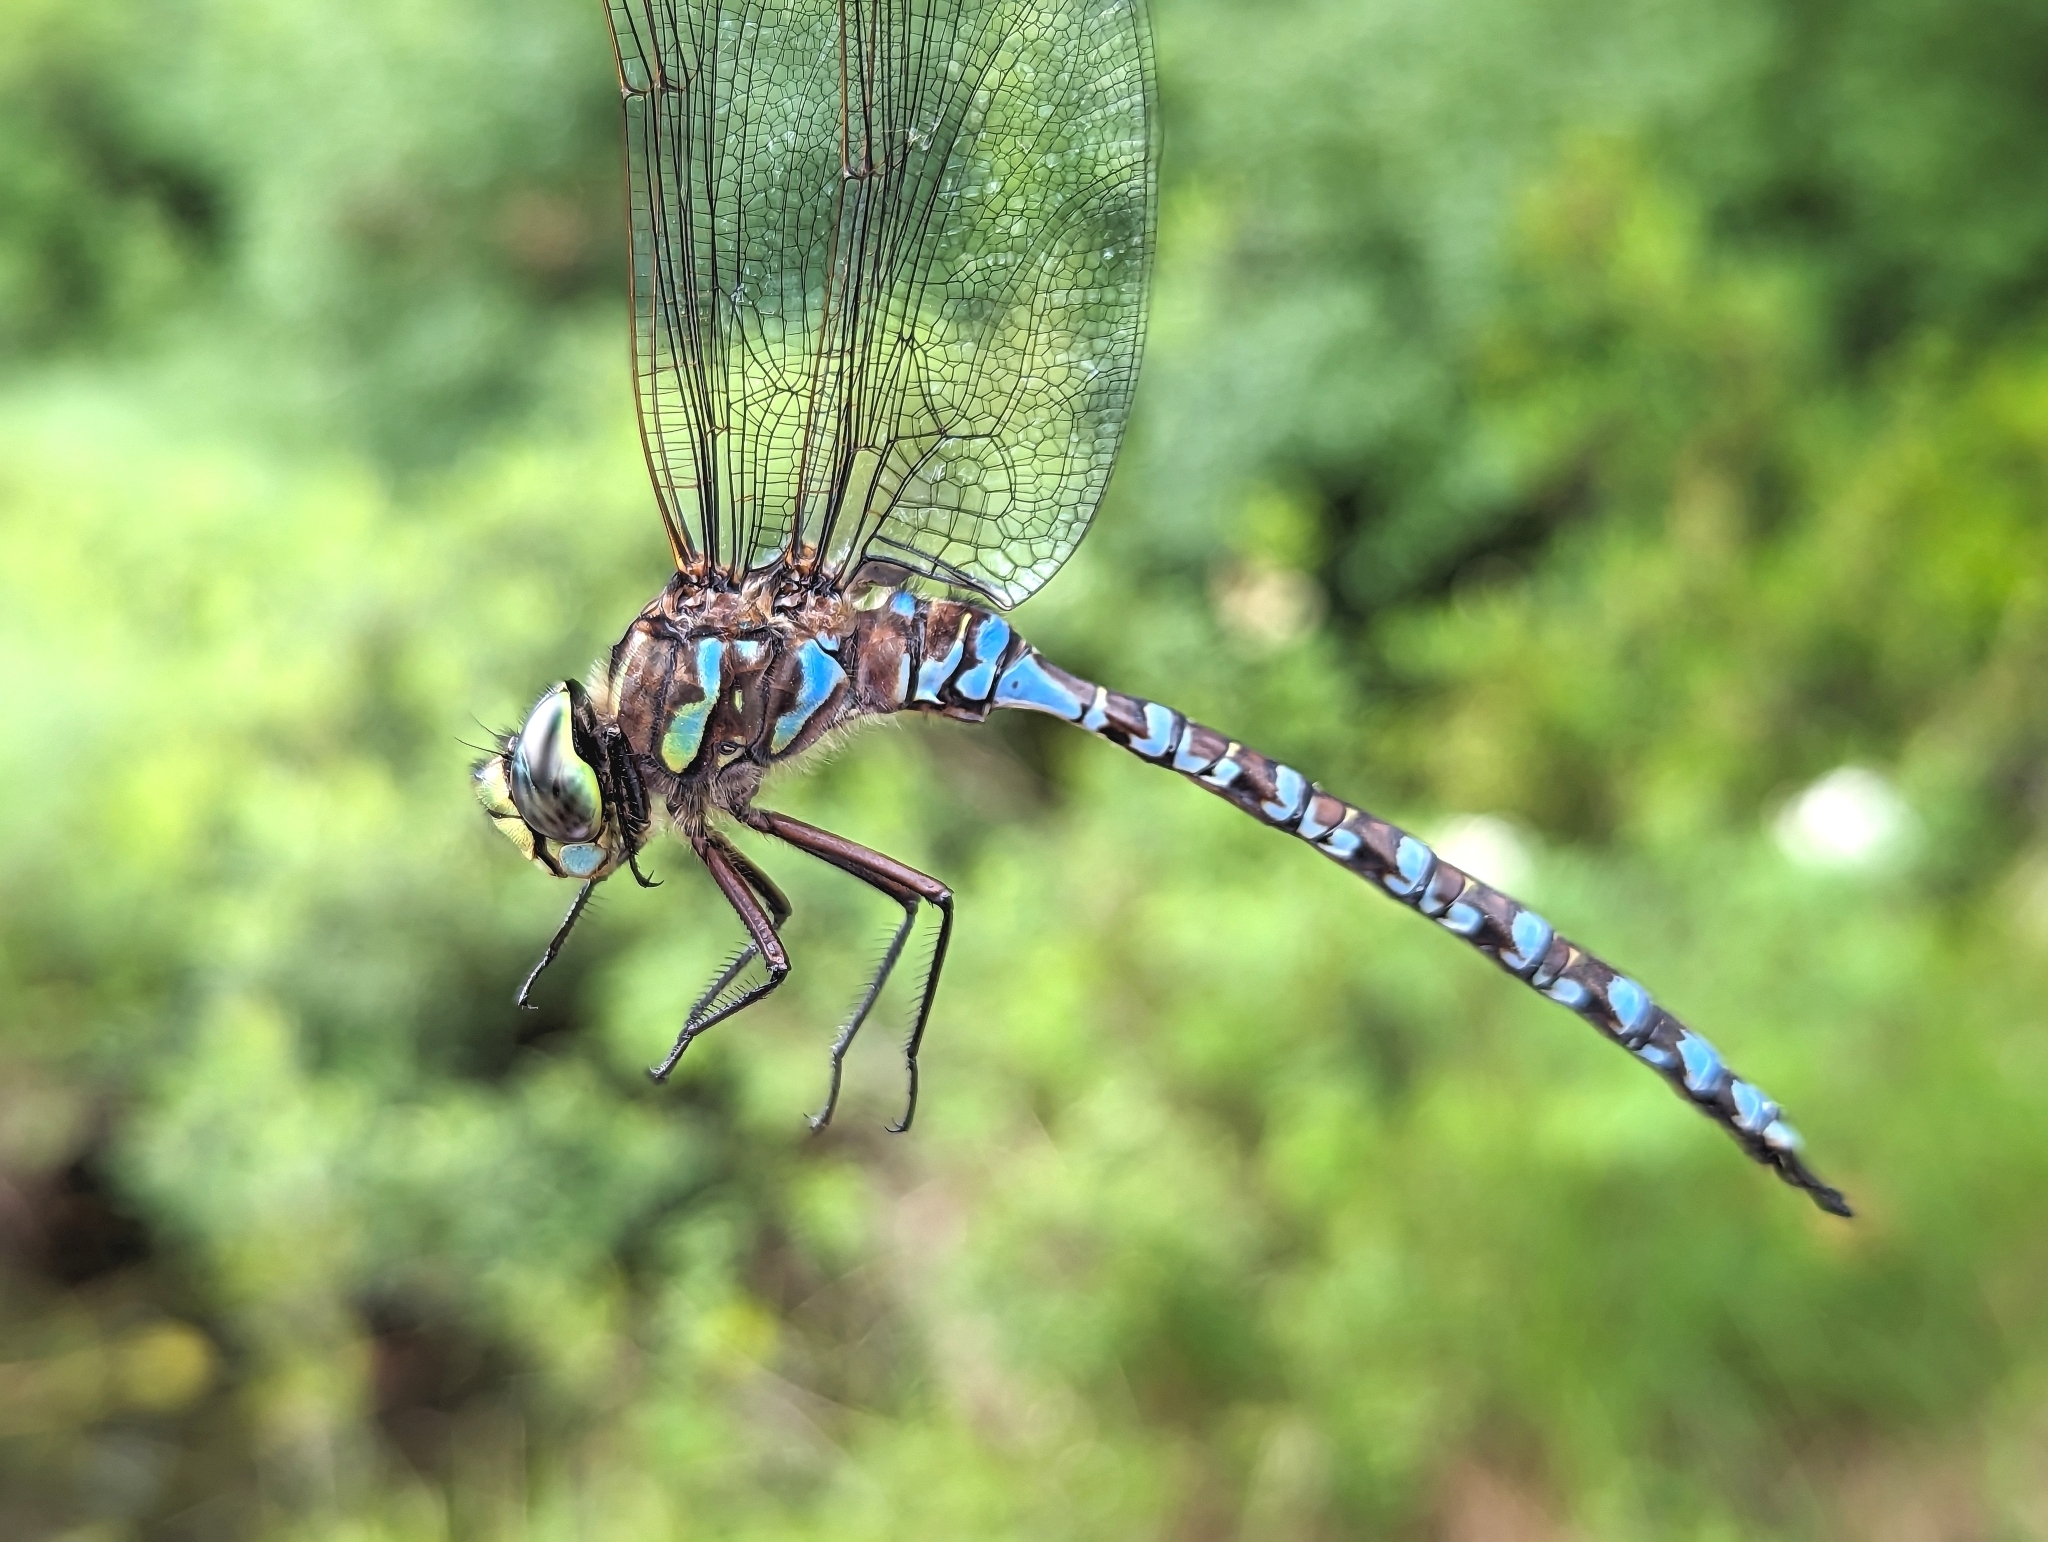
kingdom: Animalia
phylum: Arthropoda
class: Insecta
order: Odonata
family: Aeshnidae
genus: Aeshna
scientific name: Aeshna eremita
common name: Lake darner
